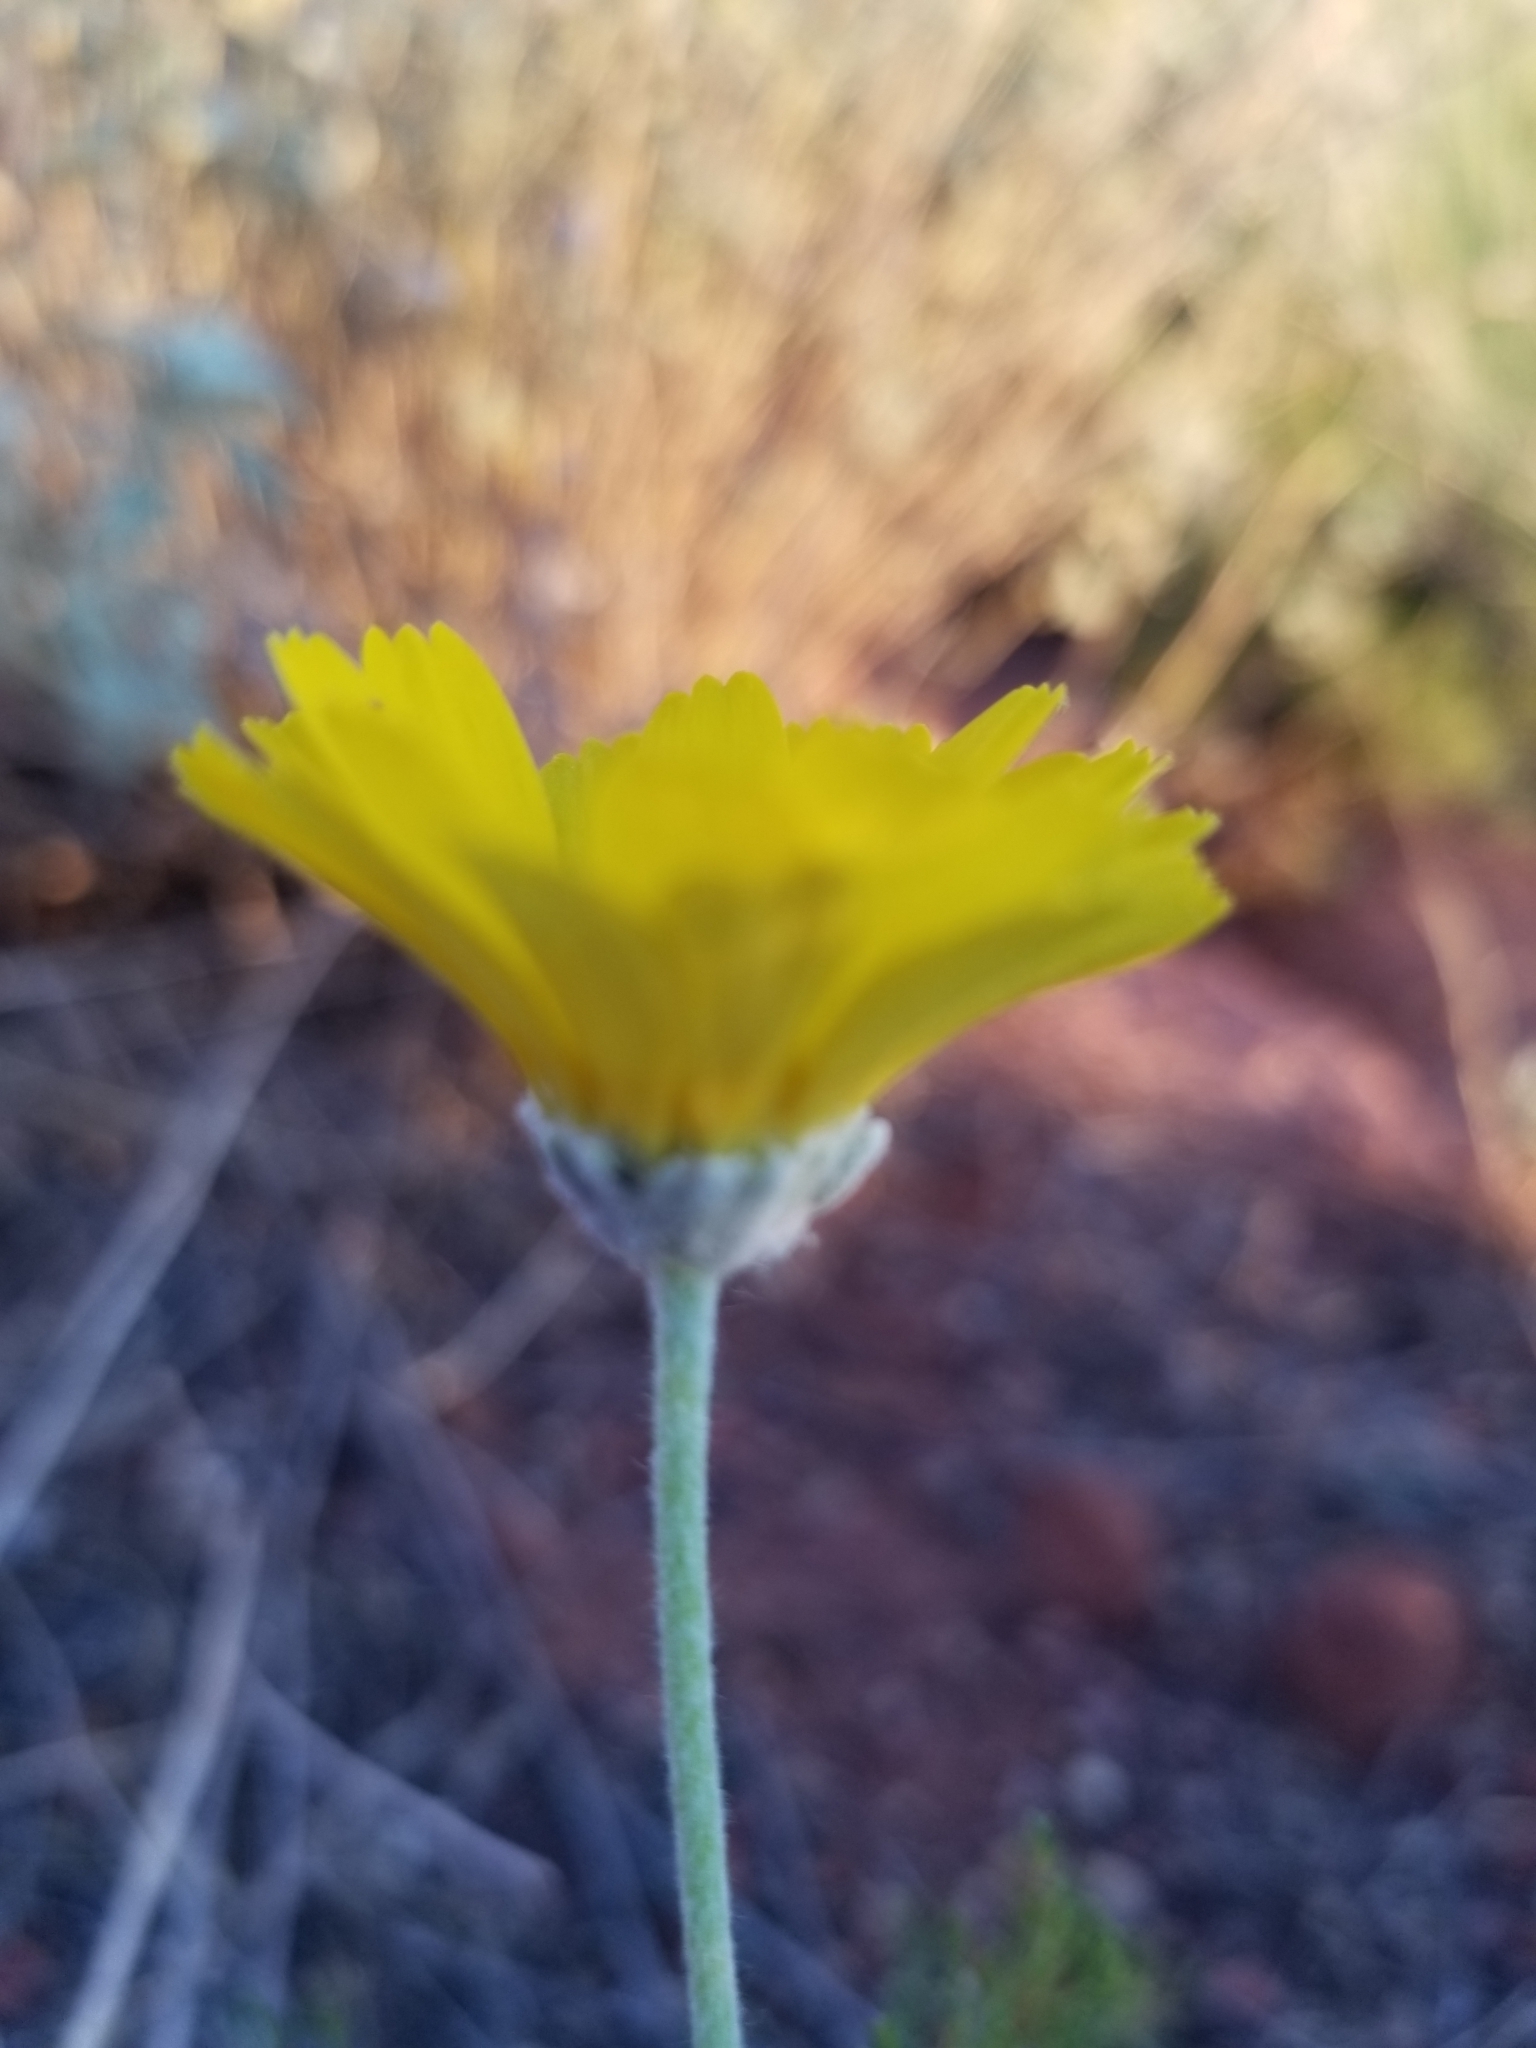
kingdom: Plantae
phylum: Tracheophyta
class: Magnoliopsida
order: Asterales
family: Asteraceae
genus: Baileya
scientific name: Baileya multiradiata
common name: Desert-marigold
